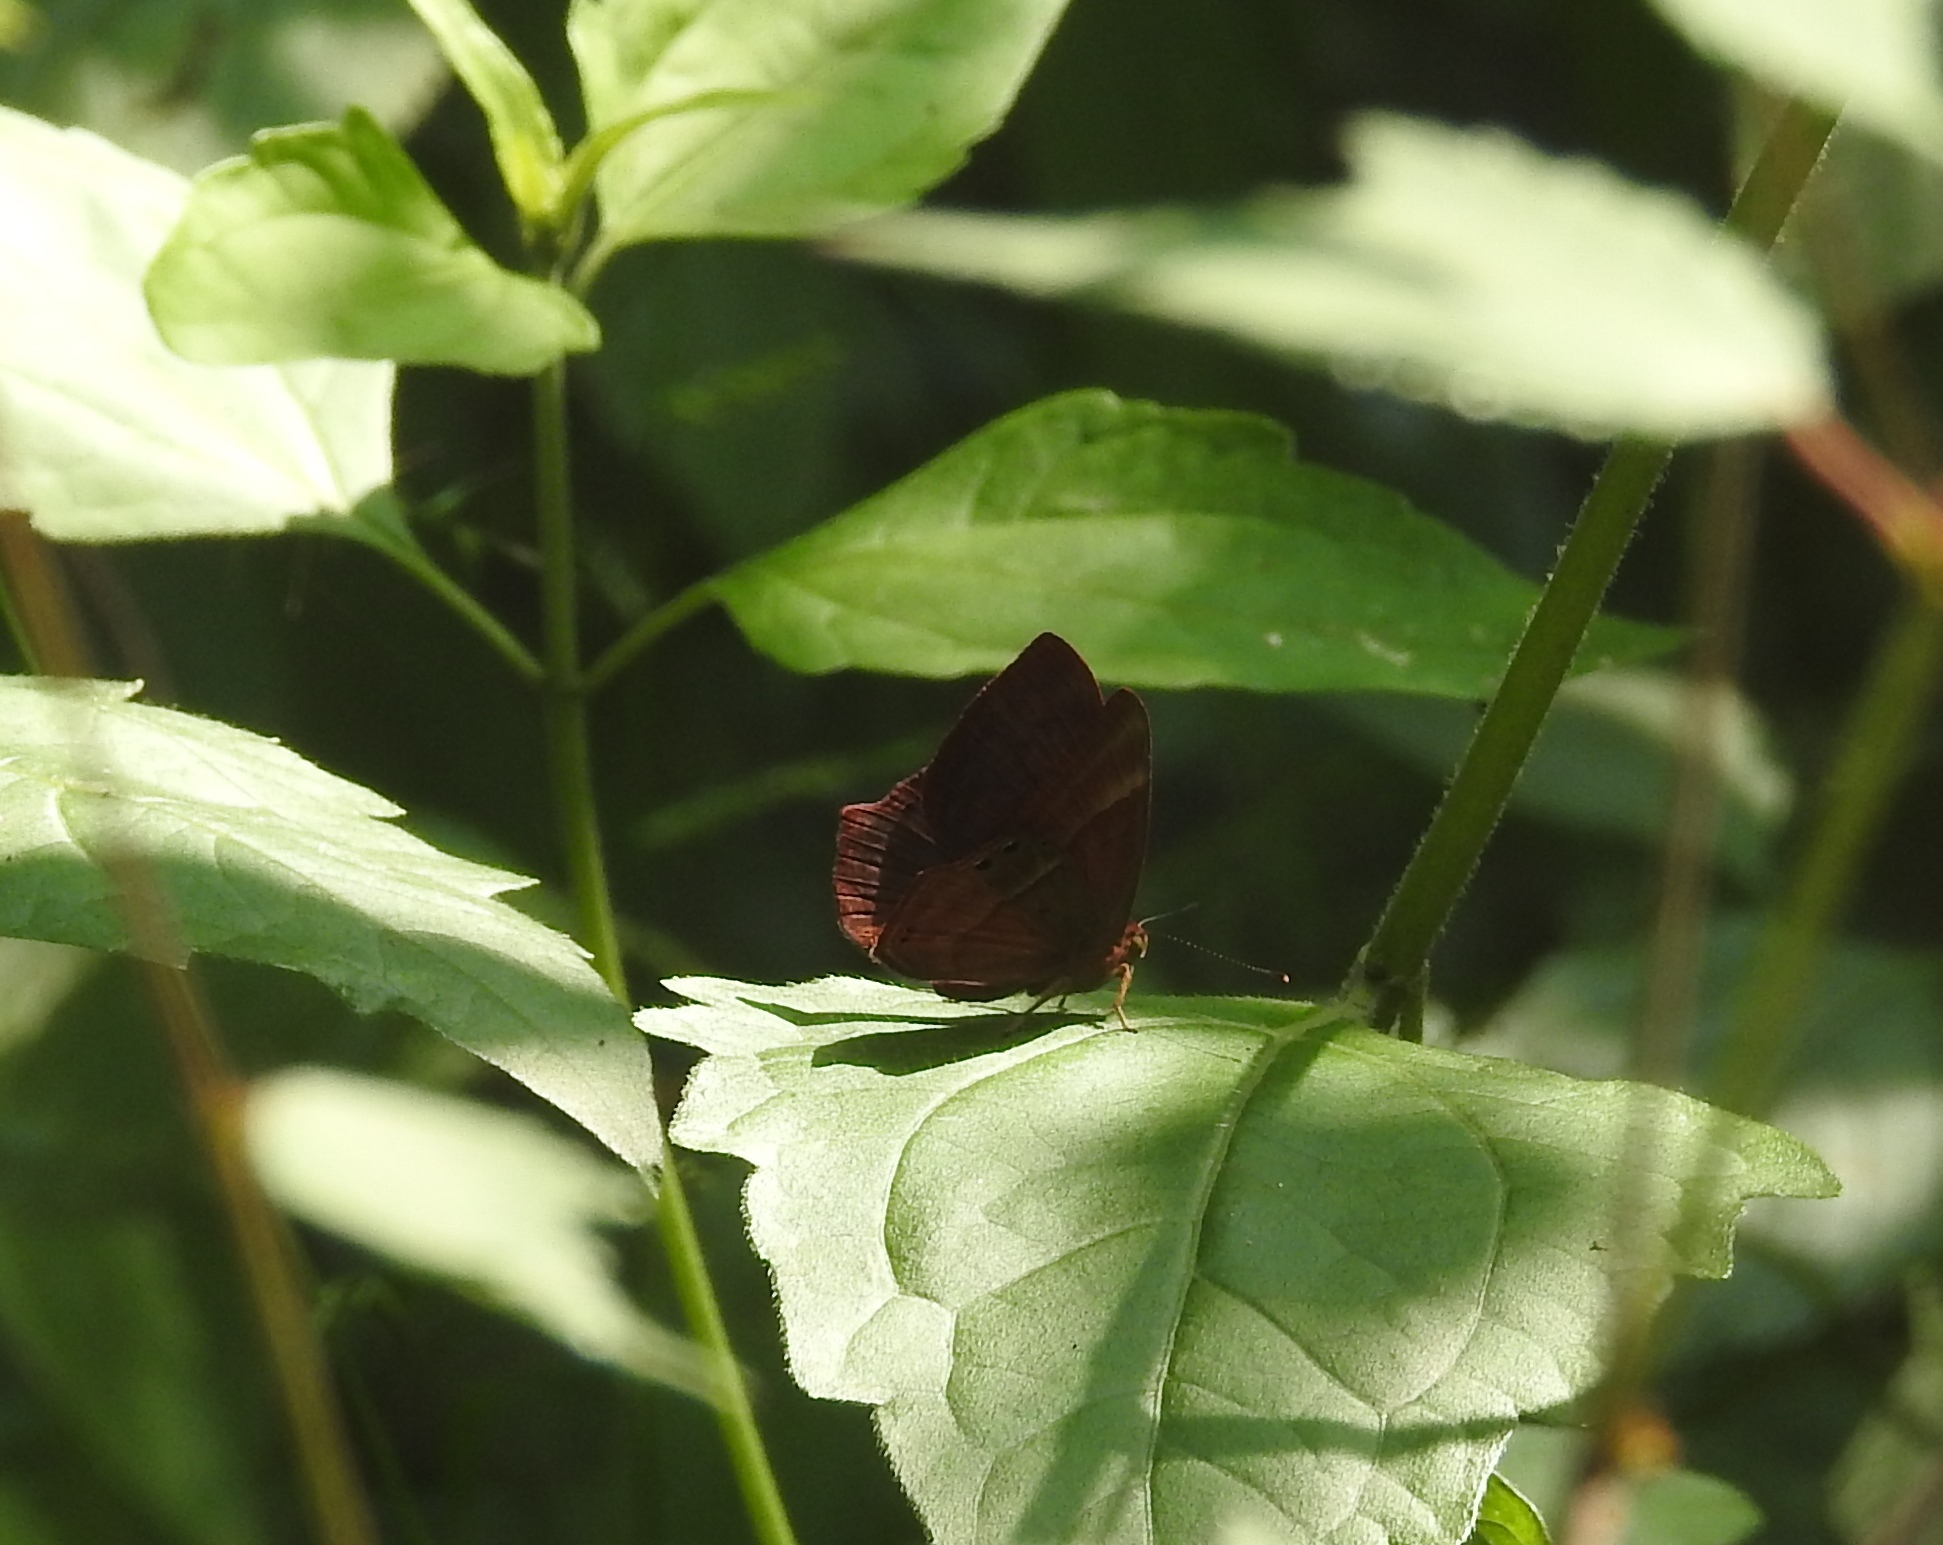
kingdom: Animalia
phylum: Arthropoda
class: Insecta
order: Lepidoptera
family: Lycaenidae
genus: Abisara
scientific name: Abisara echeria
